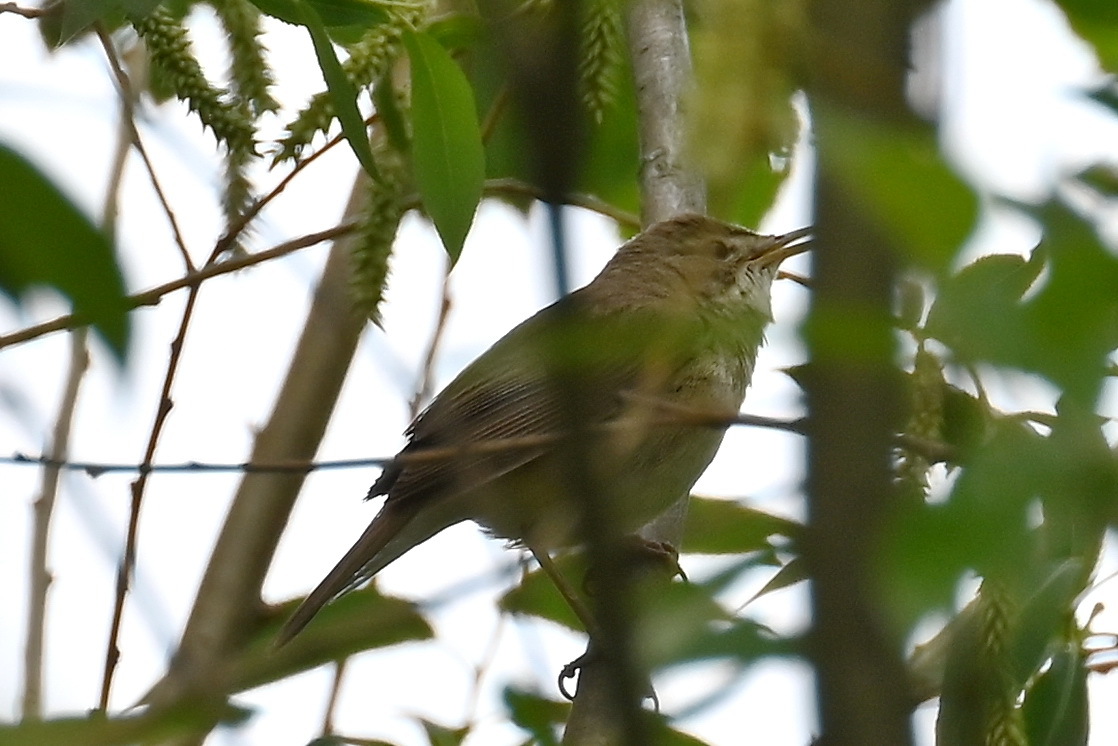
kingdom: Animalia
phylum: Chordata
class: Aves
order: Passeriformes
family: Acrocephalidae
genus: Acrocephalus
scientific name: Acrocephalus dumetorum
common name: Blyth's reed warbler
